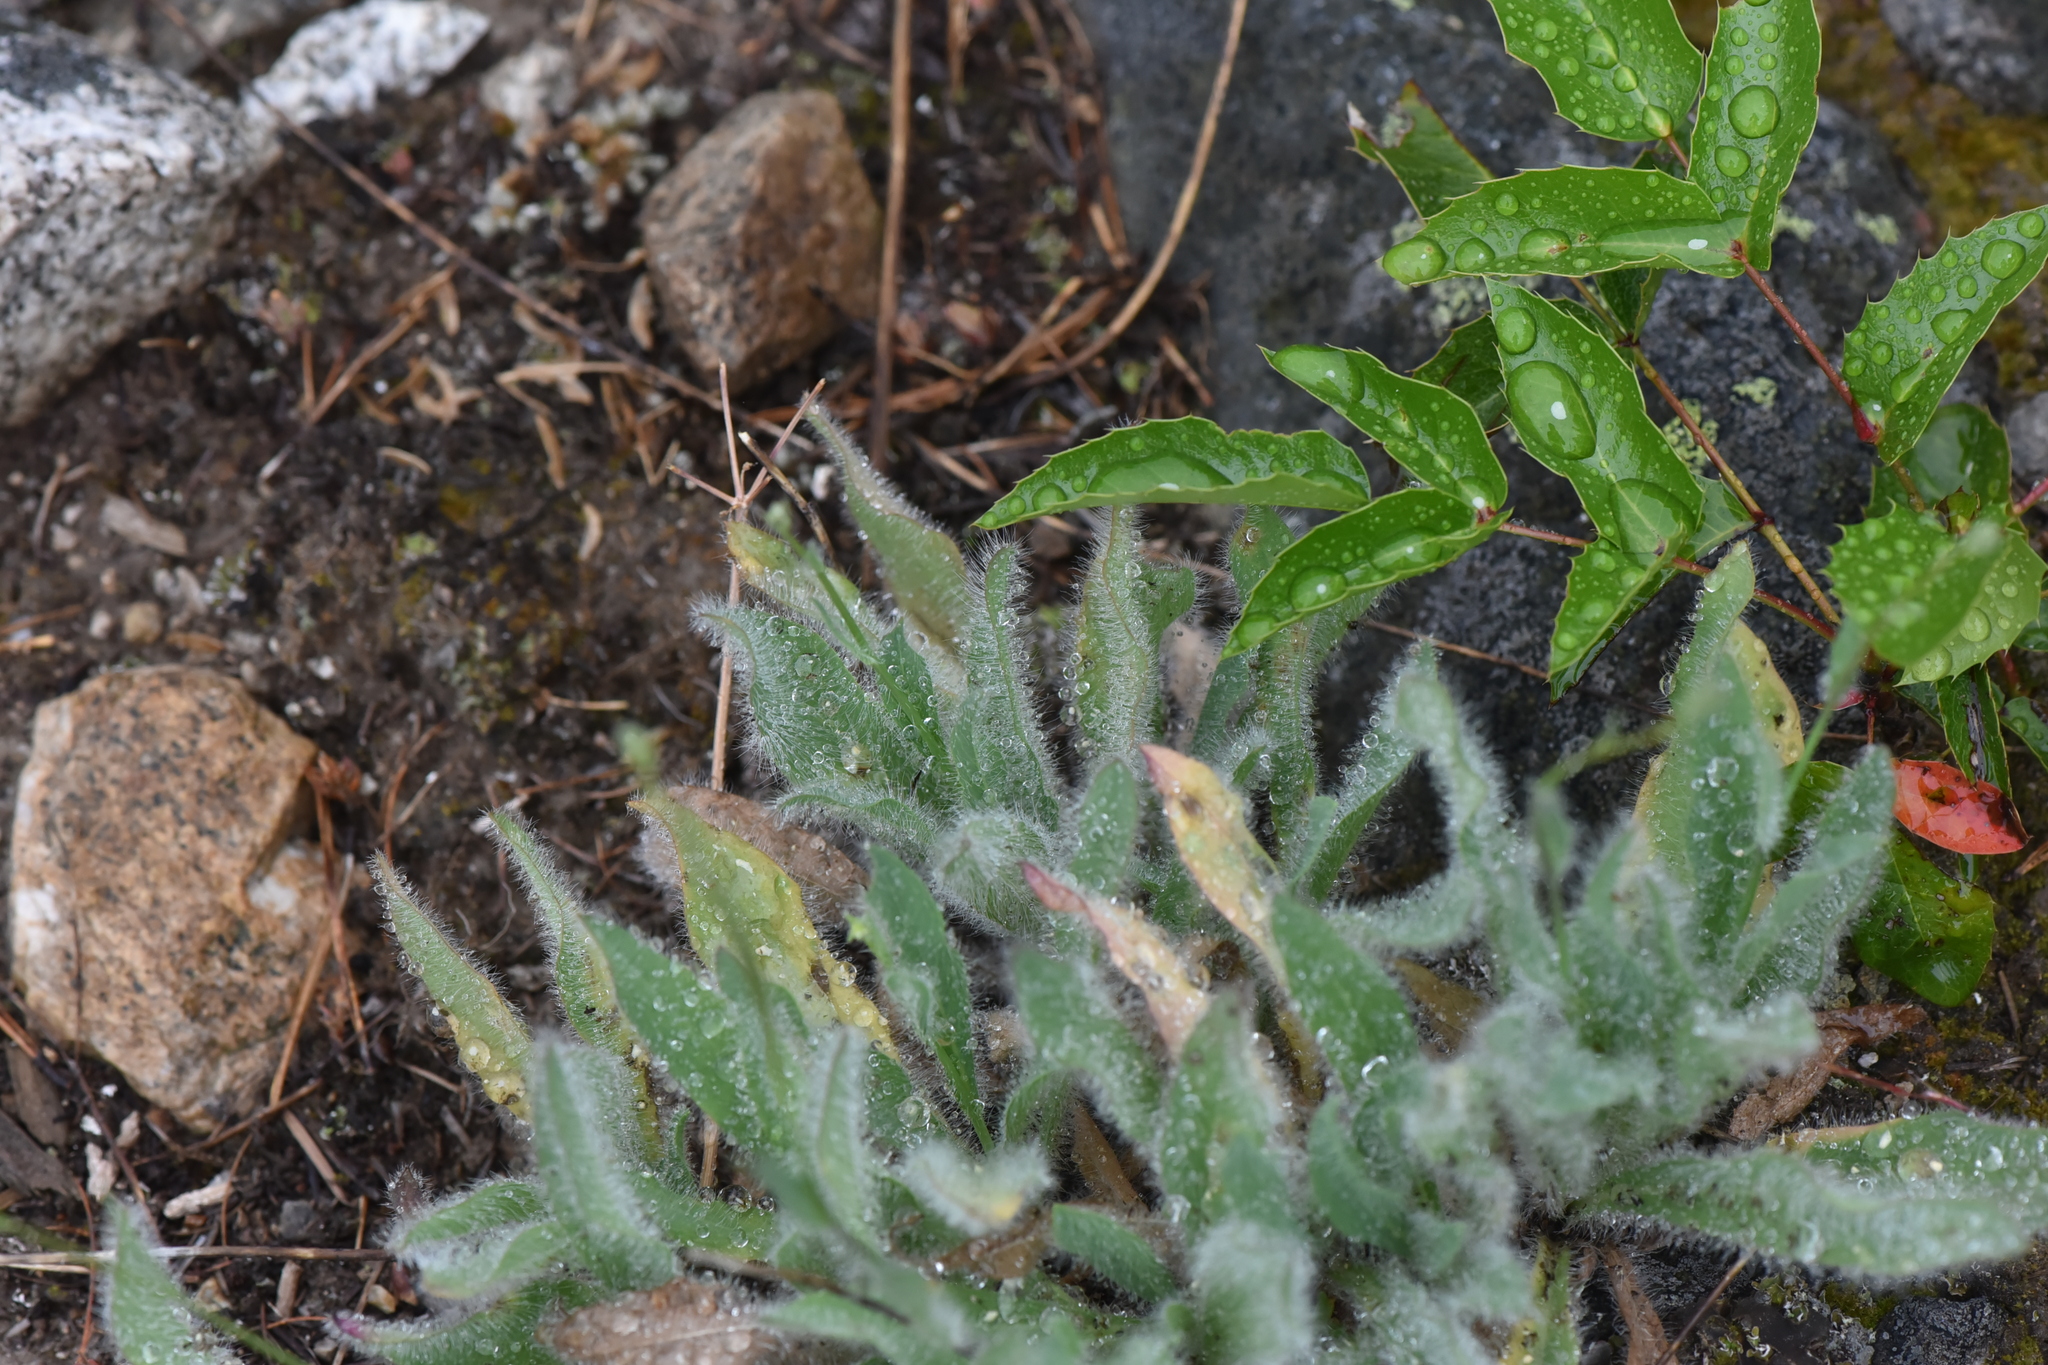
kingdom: Plantae
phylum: Tracheophyta
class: Magnoliopsida
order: Asterales
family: Asteraceae
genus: Hieracium
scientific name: Hieracium scouleri
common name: Hound's-tongue hawkweed
